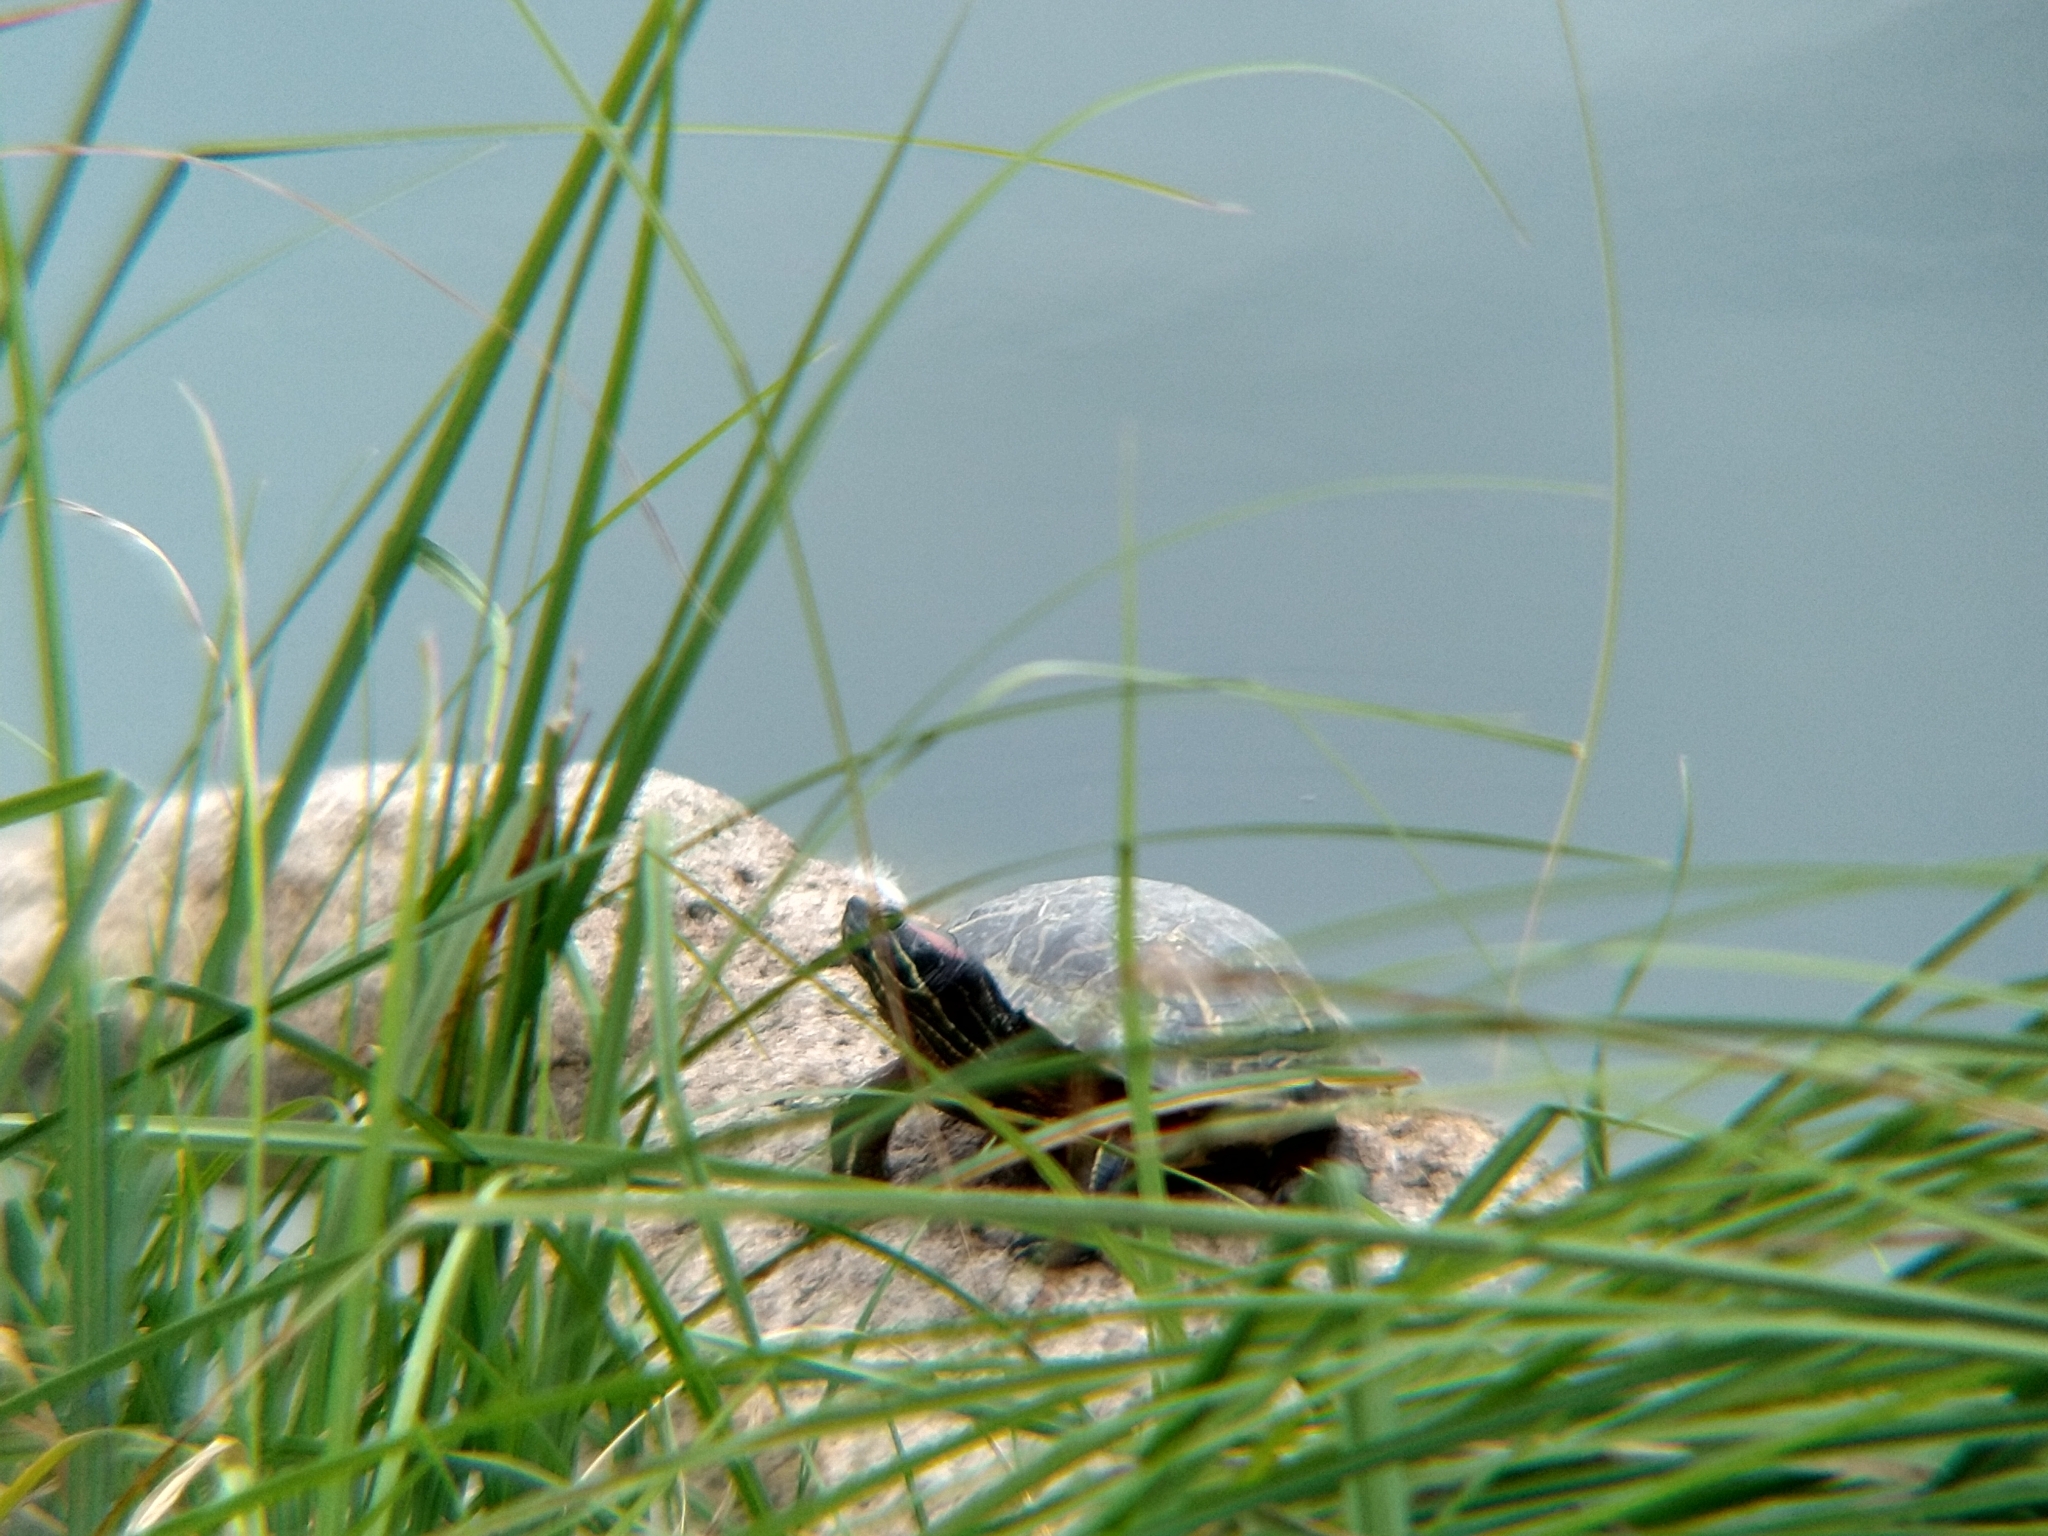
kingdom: Animalia
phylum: Chordata
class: Testudines
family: Emydidae
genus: Trachemys
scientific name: Trachemys scripta
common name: Slider
